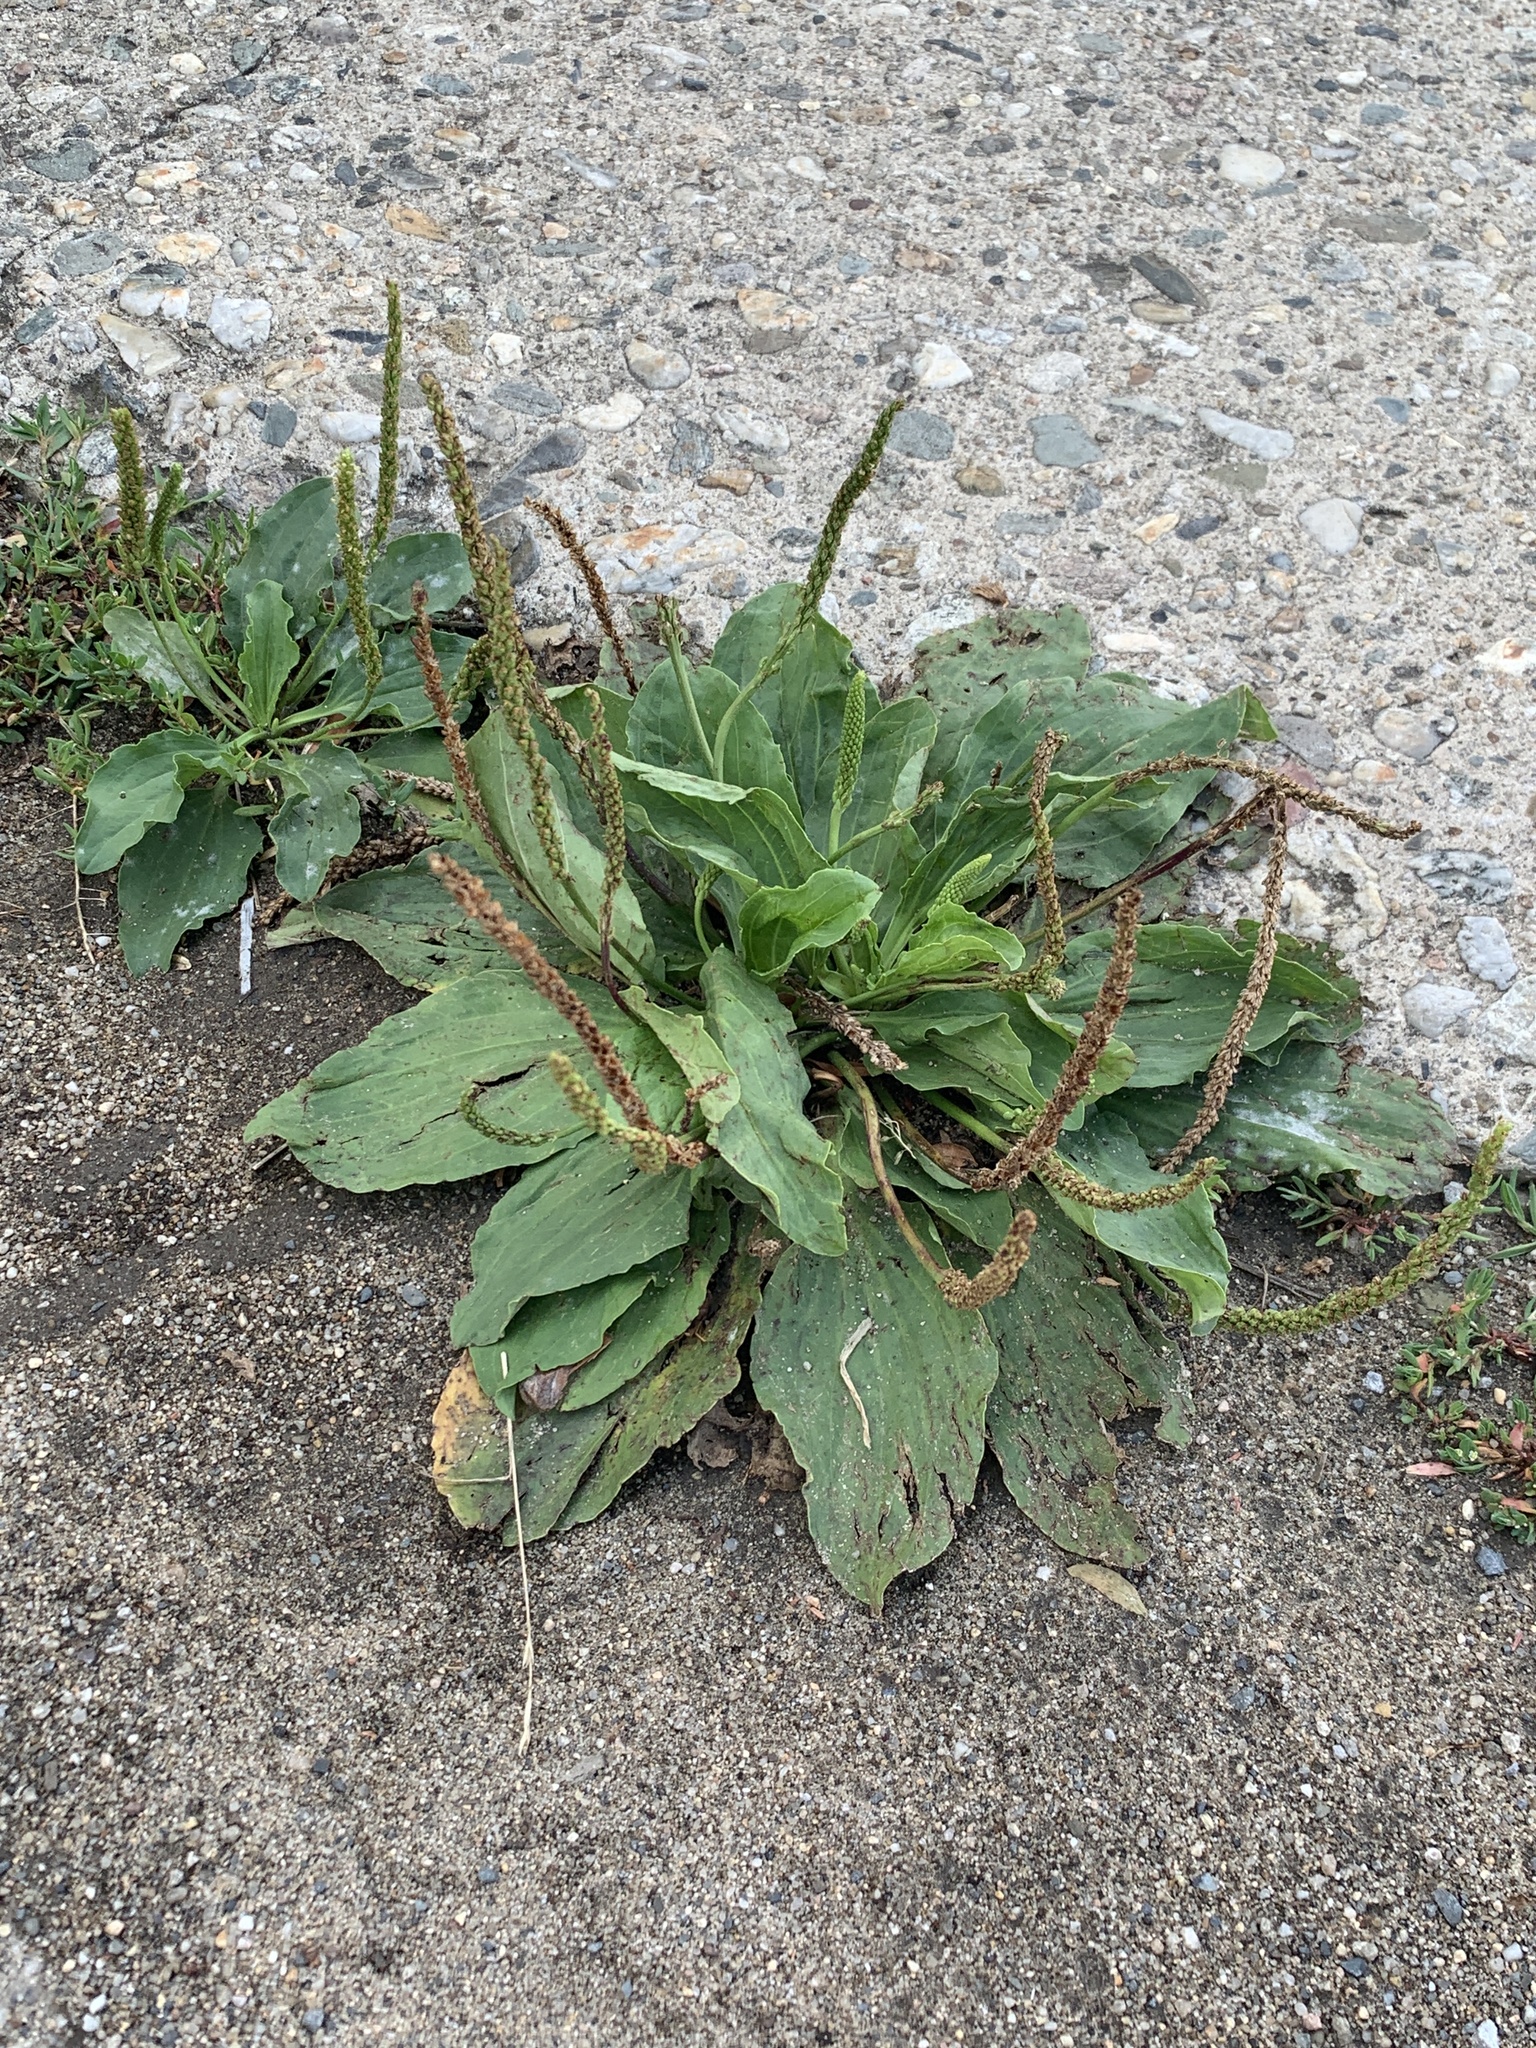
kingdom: Plantae
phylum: Tracheophyta
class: Magnoliopsida
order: Lamiales
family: Plantaginaceae
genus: Plantago
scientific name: Plantago major
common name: Common plantain
